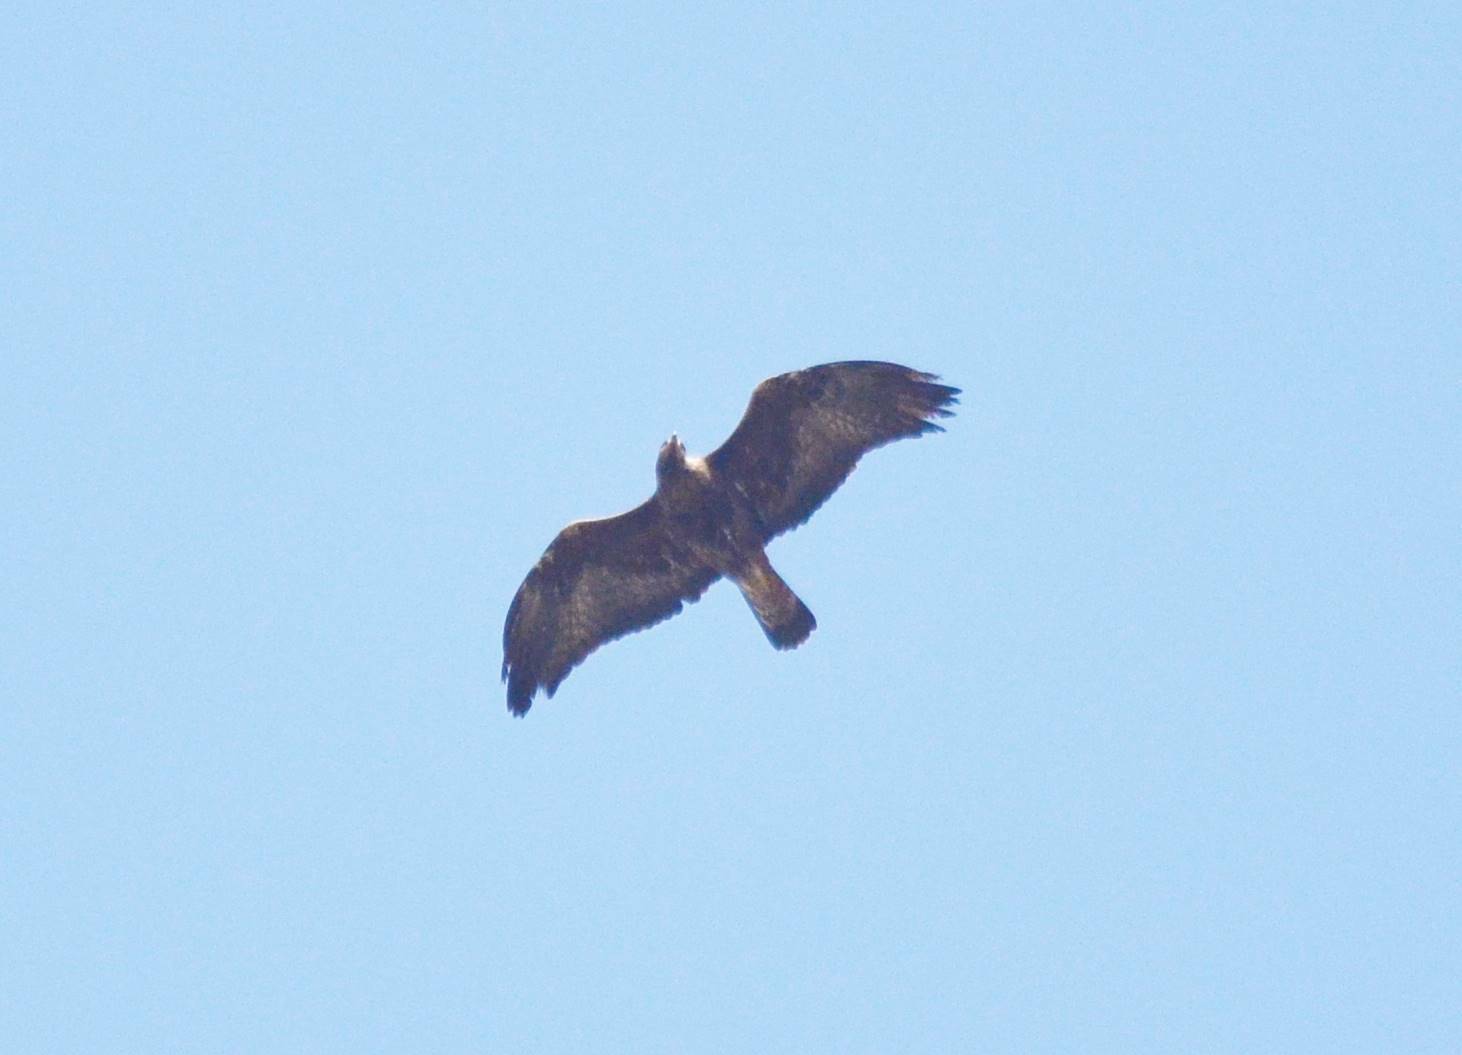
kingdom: Animalia
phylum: Chordata
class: Aves
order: Accipitriformes
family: Accipitridae
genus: Aquila
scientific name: Aquila chrysaetos
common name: Golden eagle
